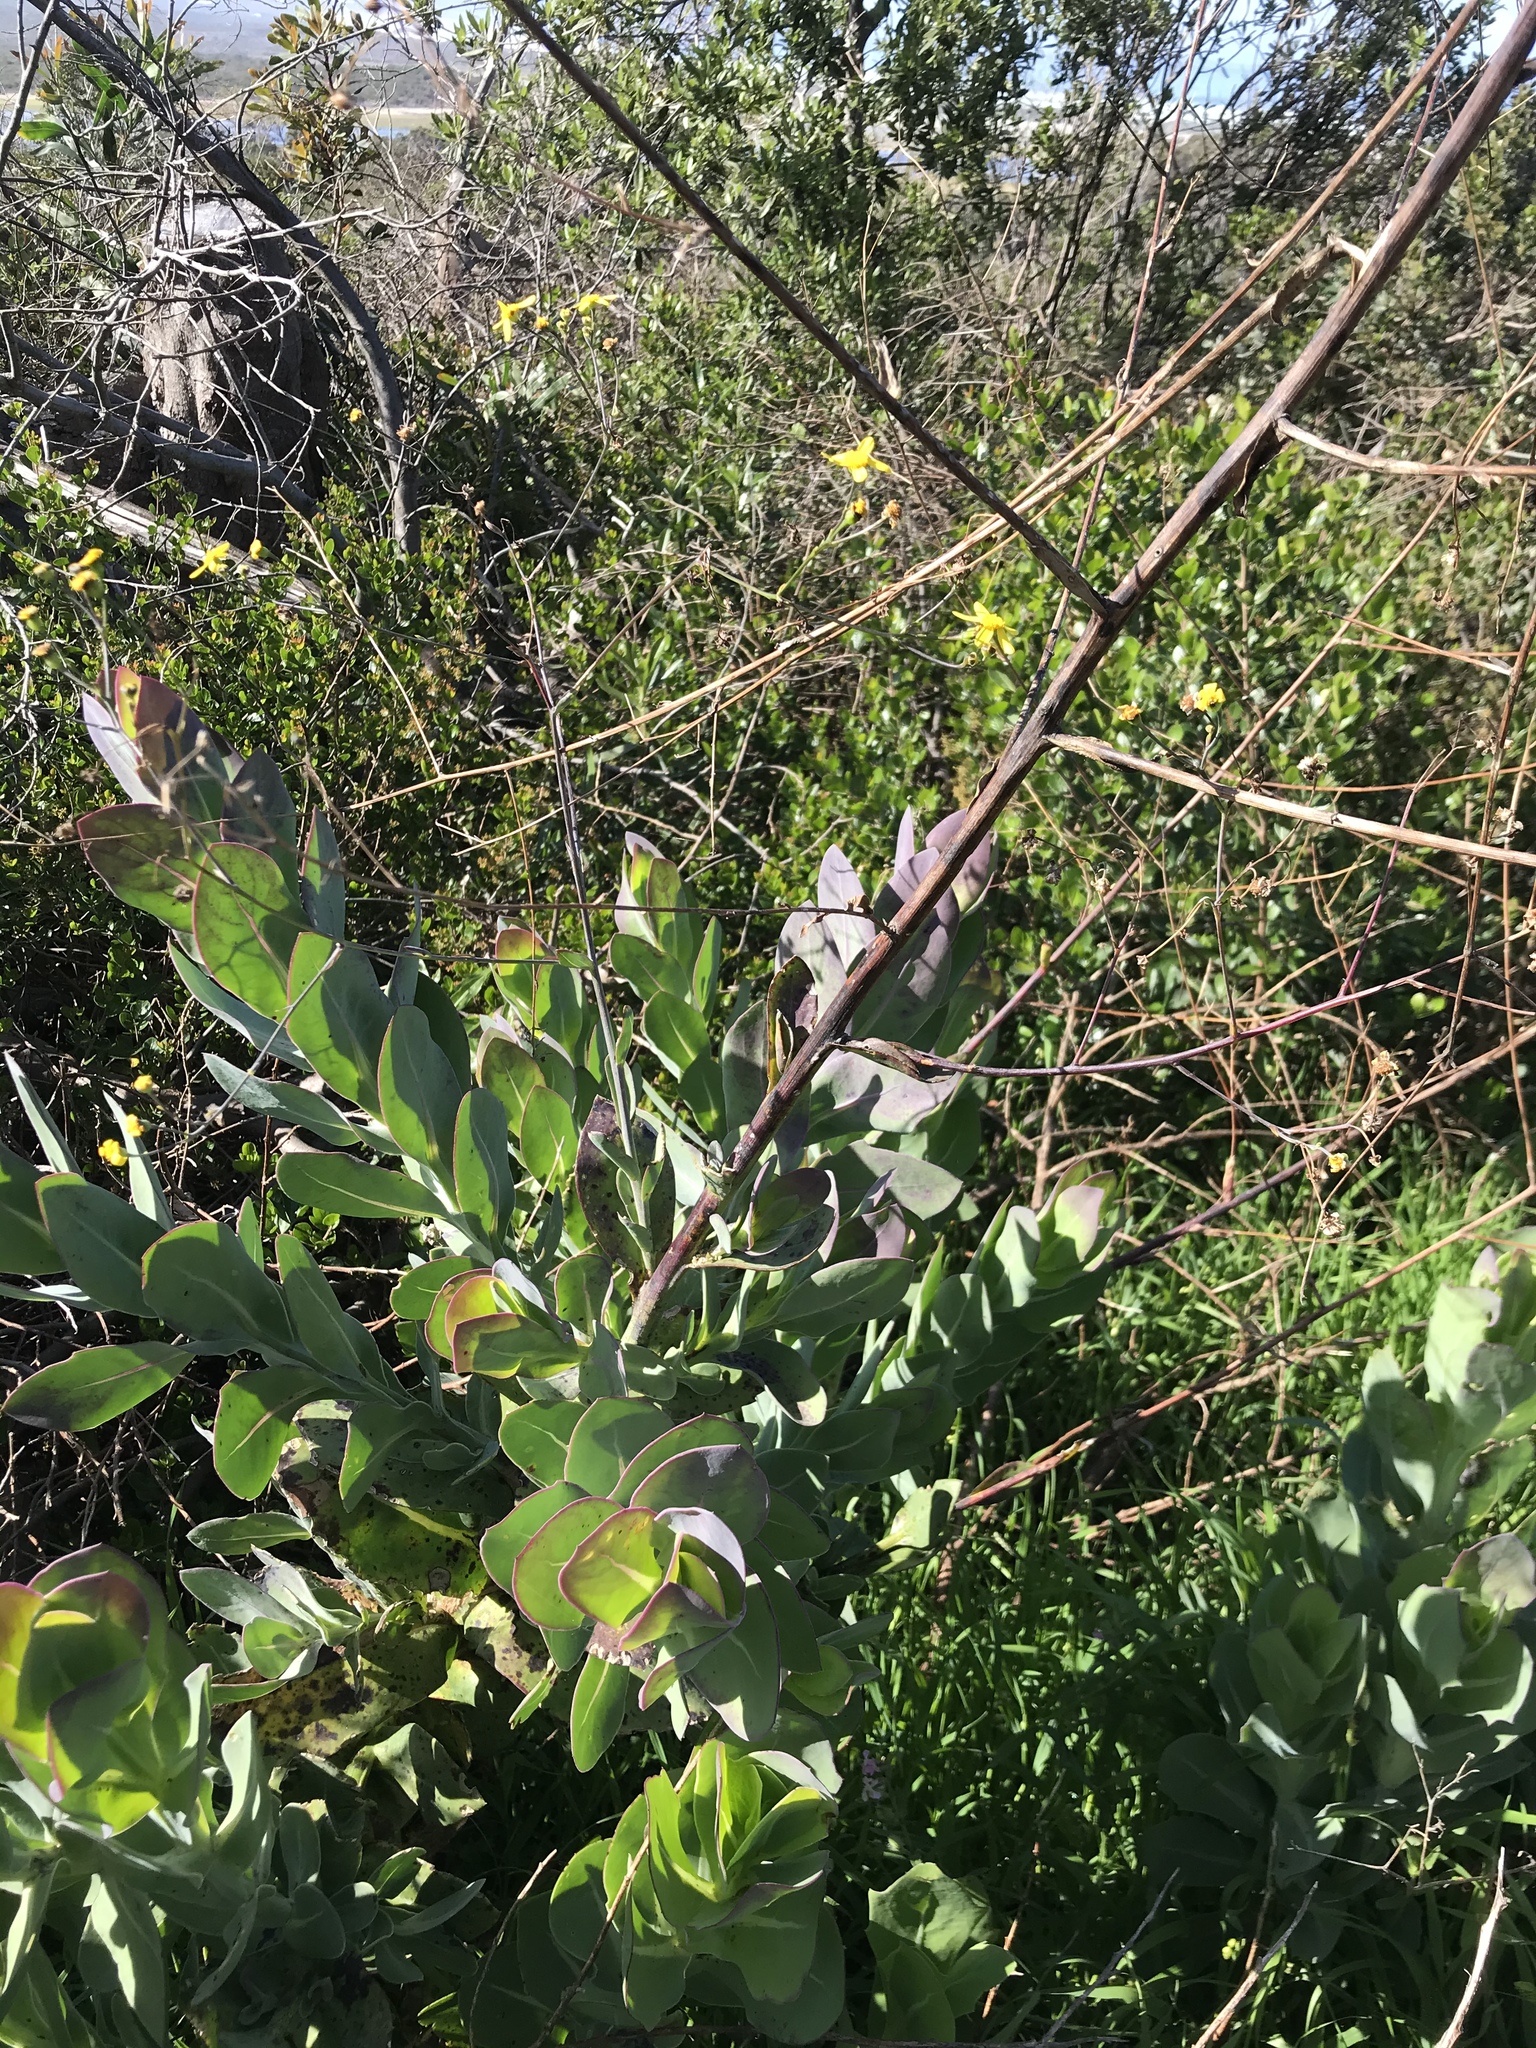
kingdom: Plantae
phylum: Tracheophyta
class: Magnoliopsida
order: Asterales
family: Asteraceae
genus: Othonna
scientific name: Othonna quinquedentata
